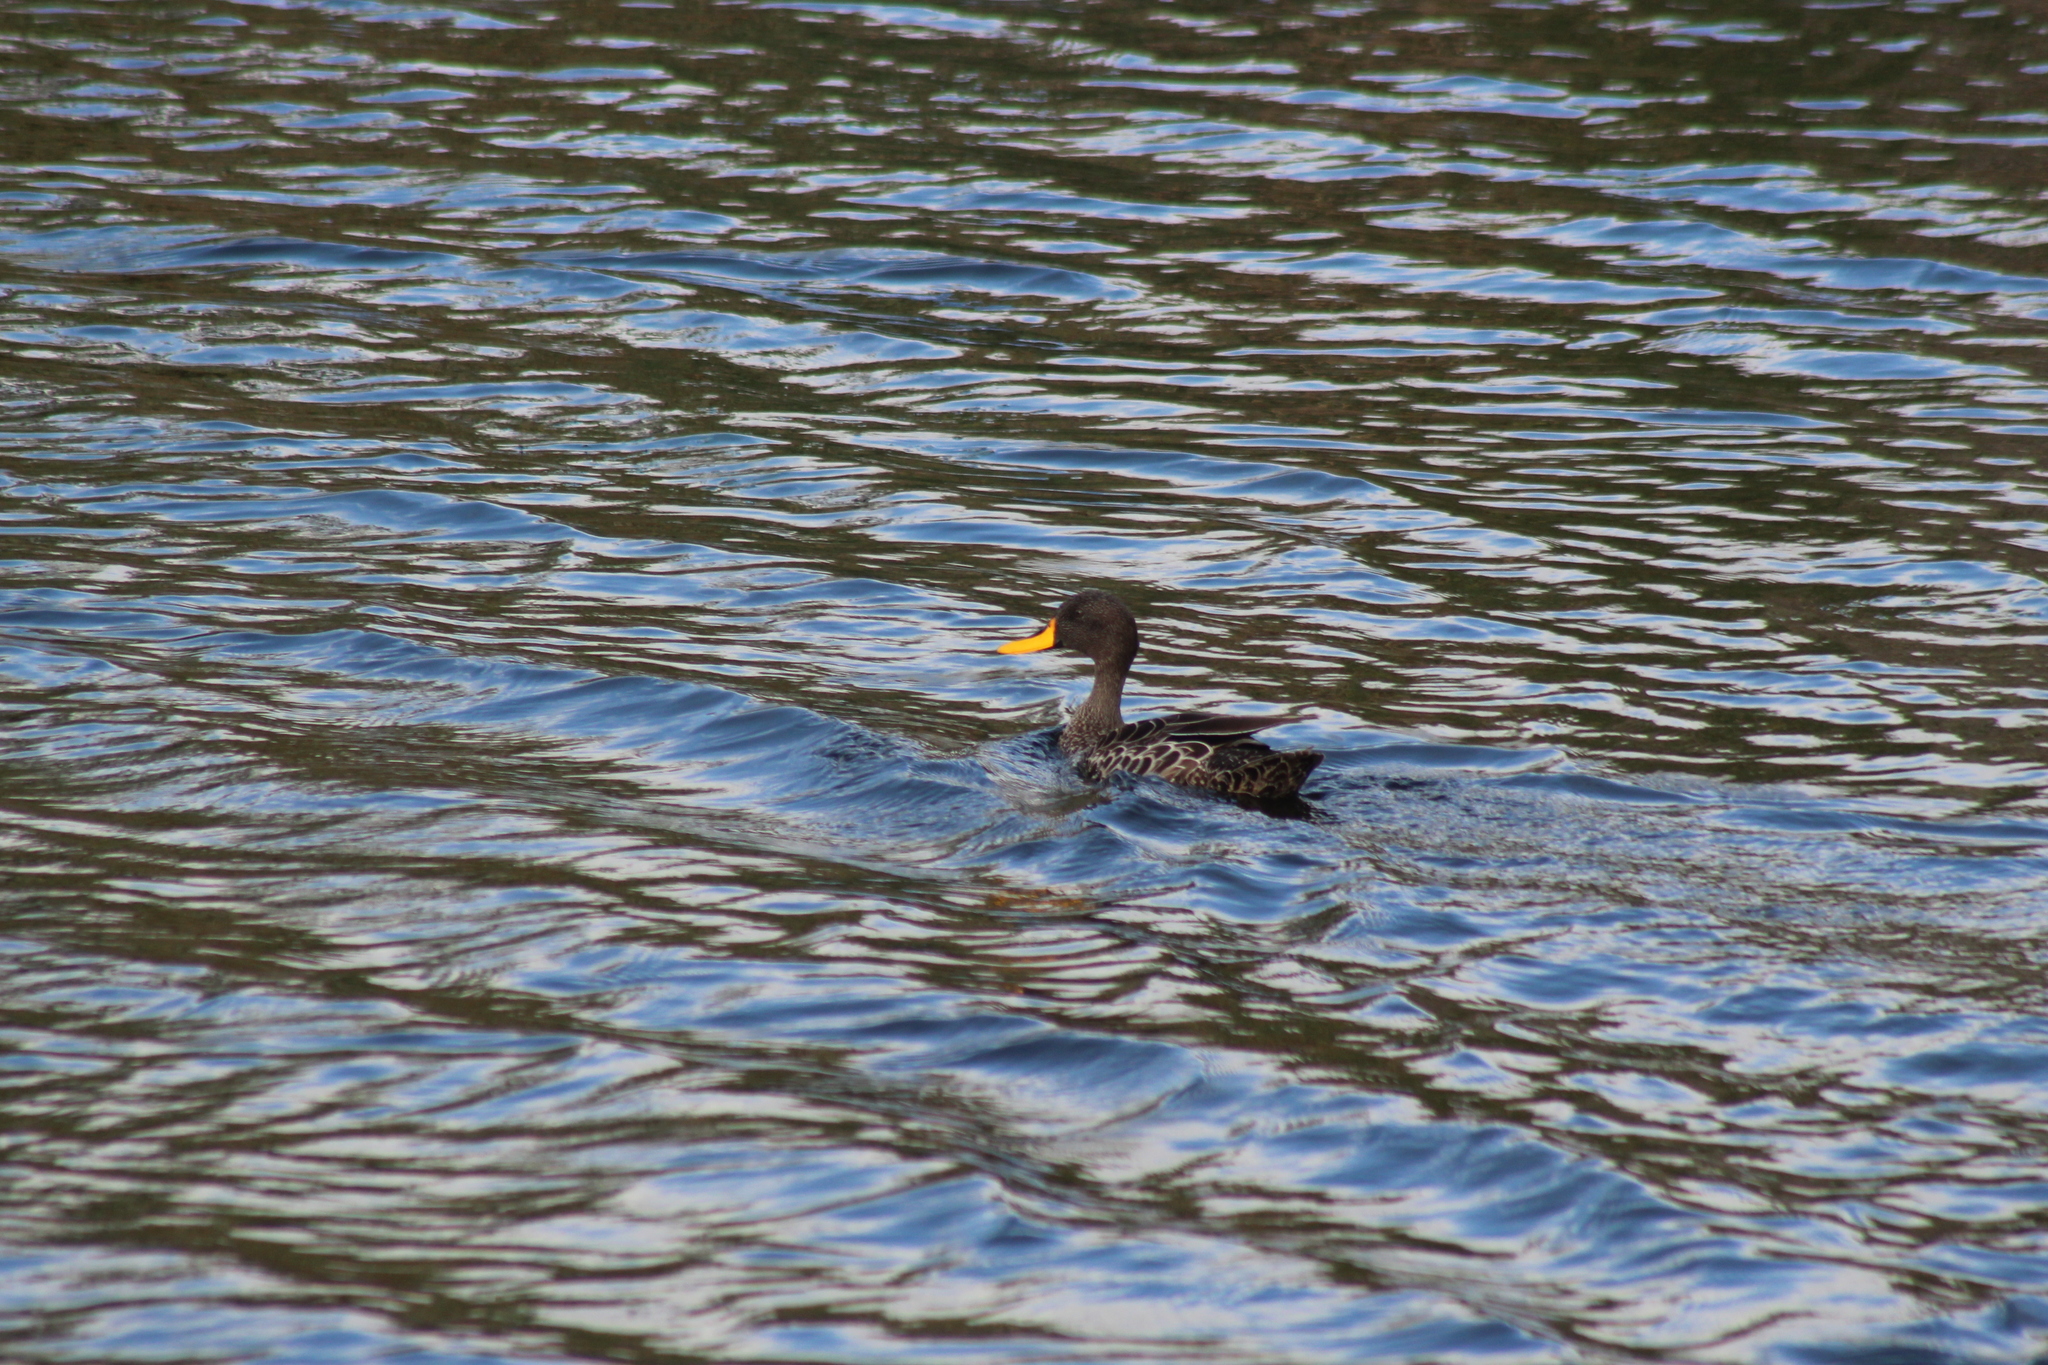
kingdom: Animalia
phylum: Chordata
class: Aves
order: Anseriformes
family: Anatidae
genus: Anas
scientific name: Anas undulata
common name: Yellow-billed duck
